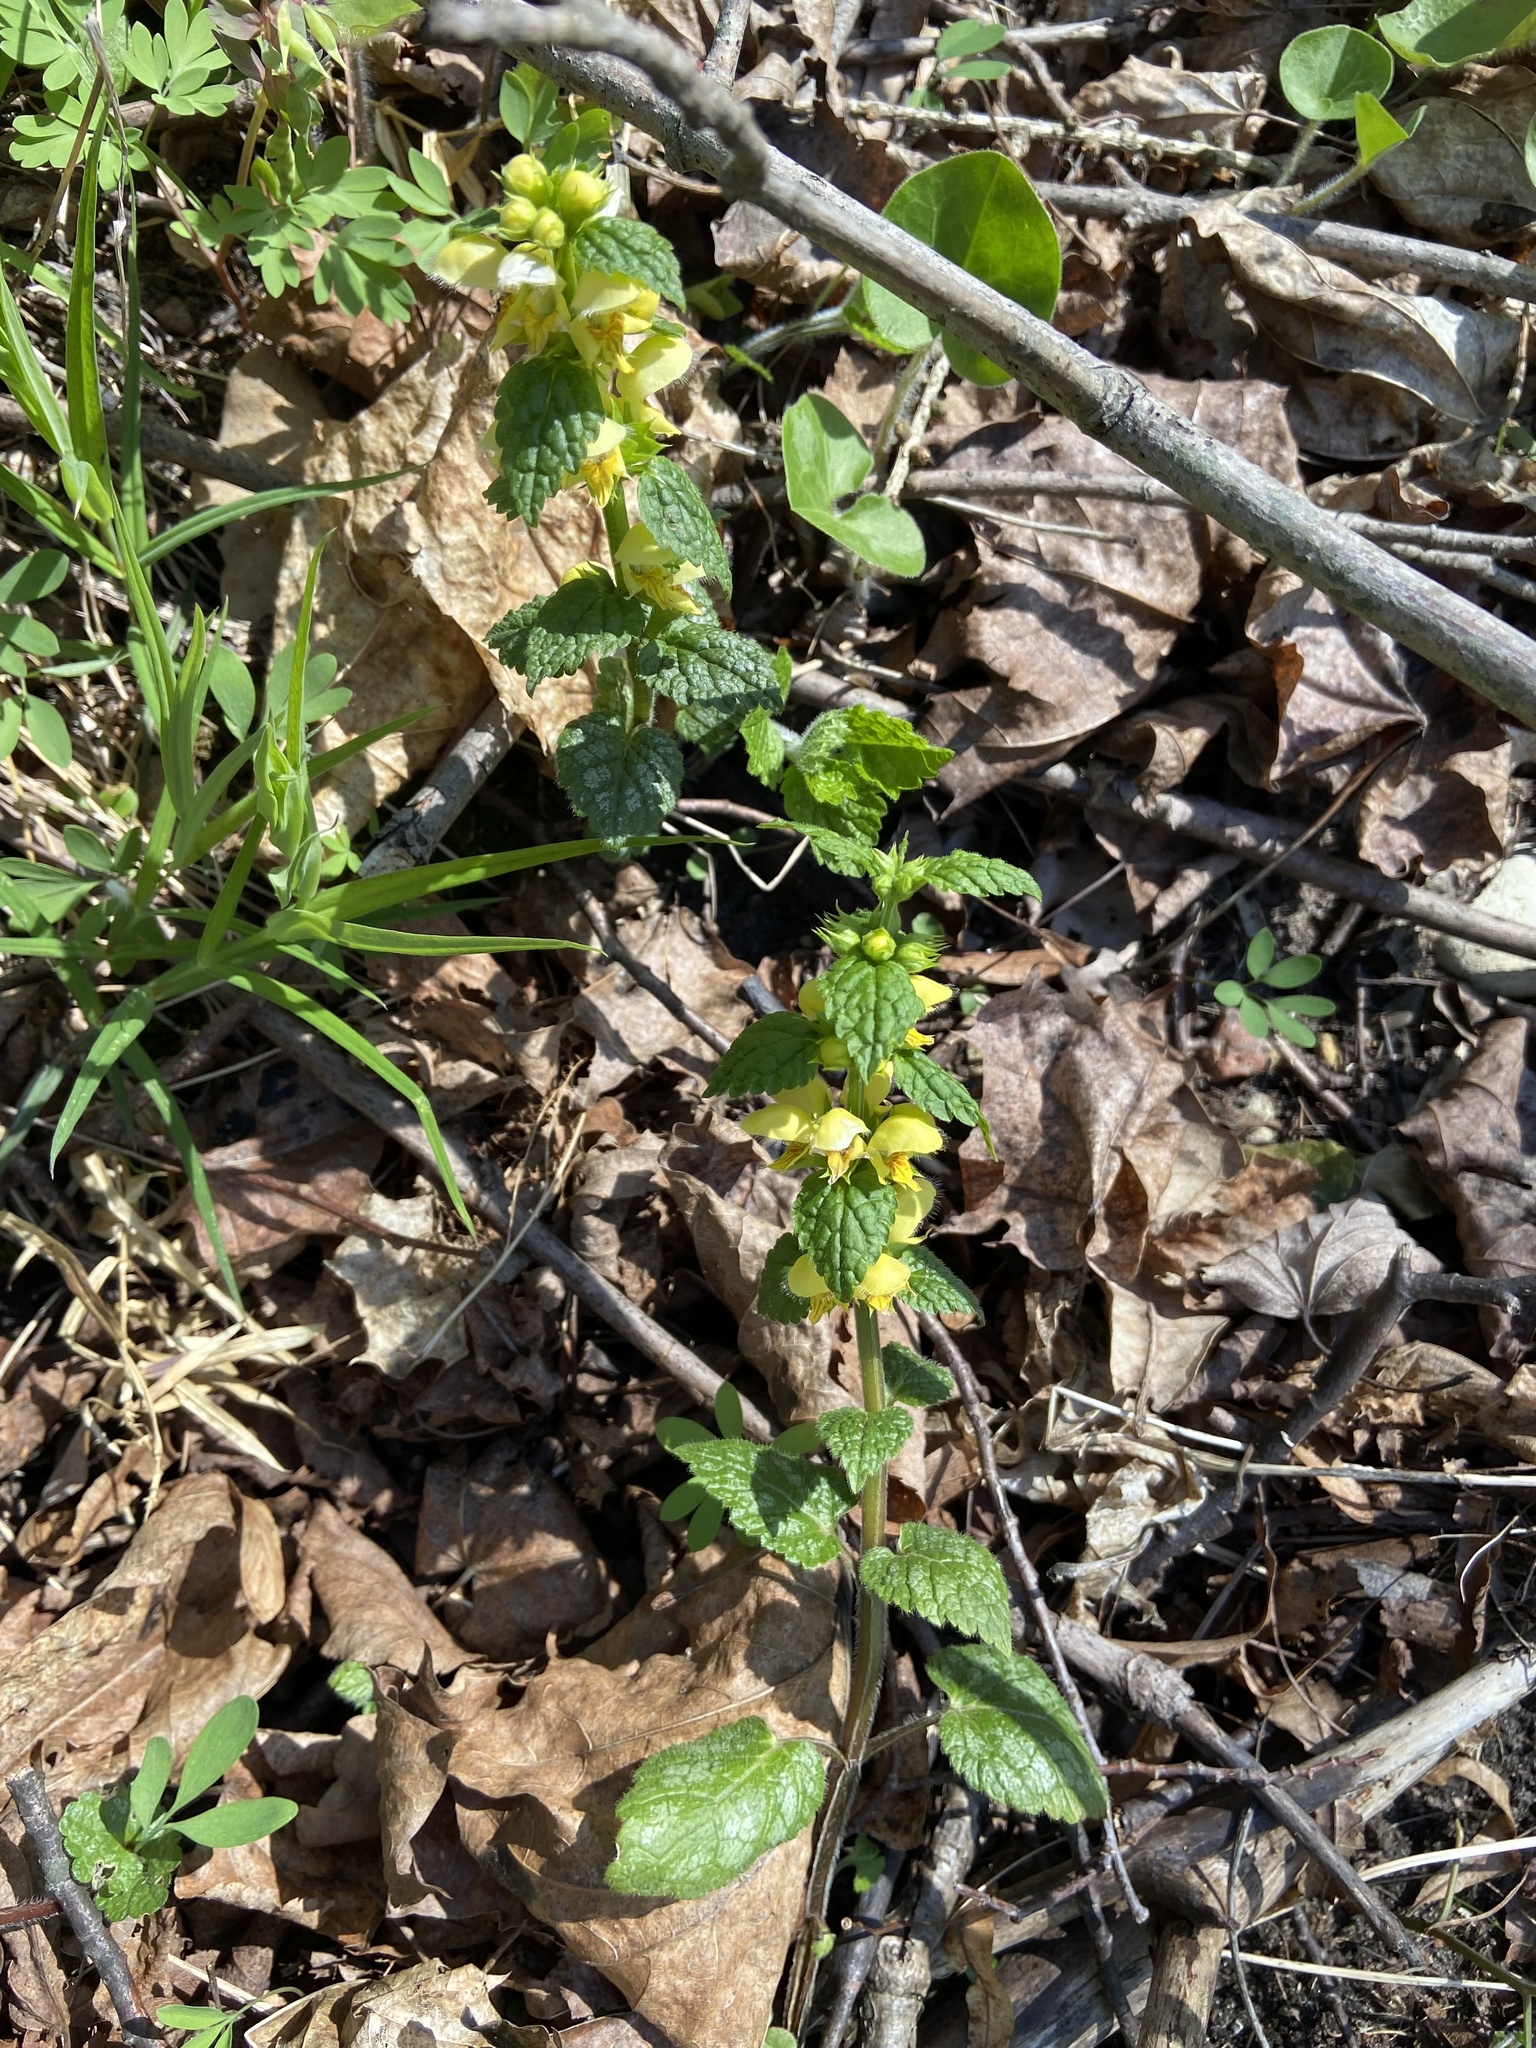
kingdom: Plantae
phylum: Tracheophyta
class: Magnoliopsida
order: Lamiales
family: Lamiaceae
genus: Lamium
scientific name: Lamium galeobdolon
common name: Yellow archangel
